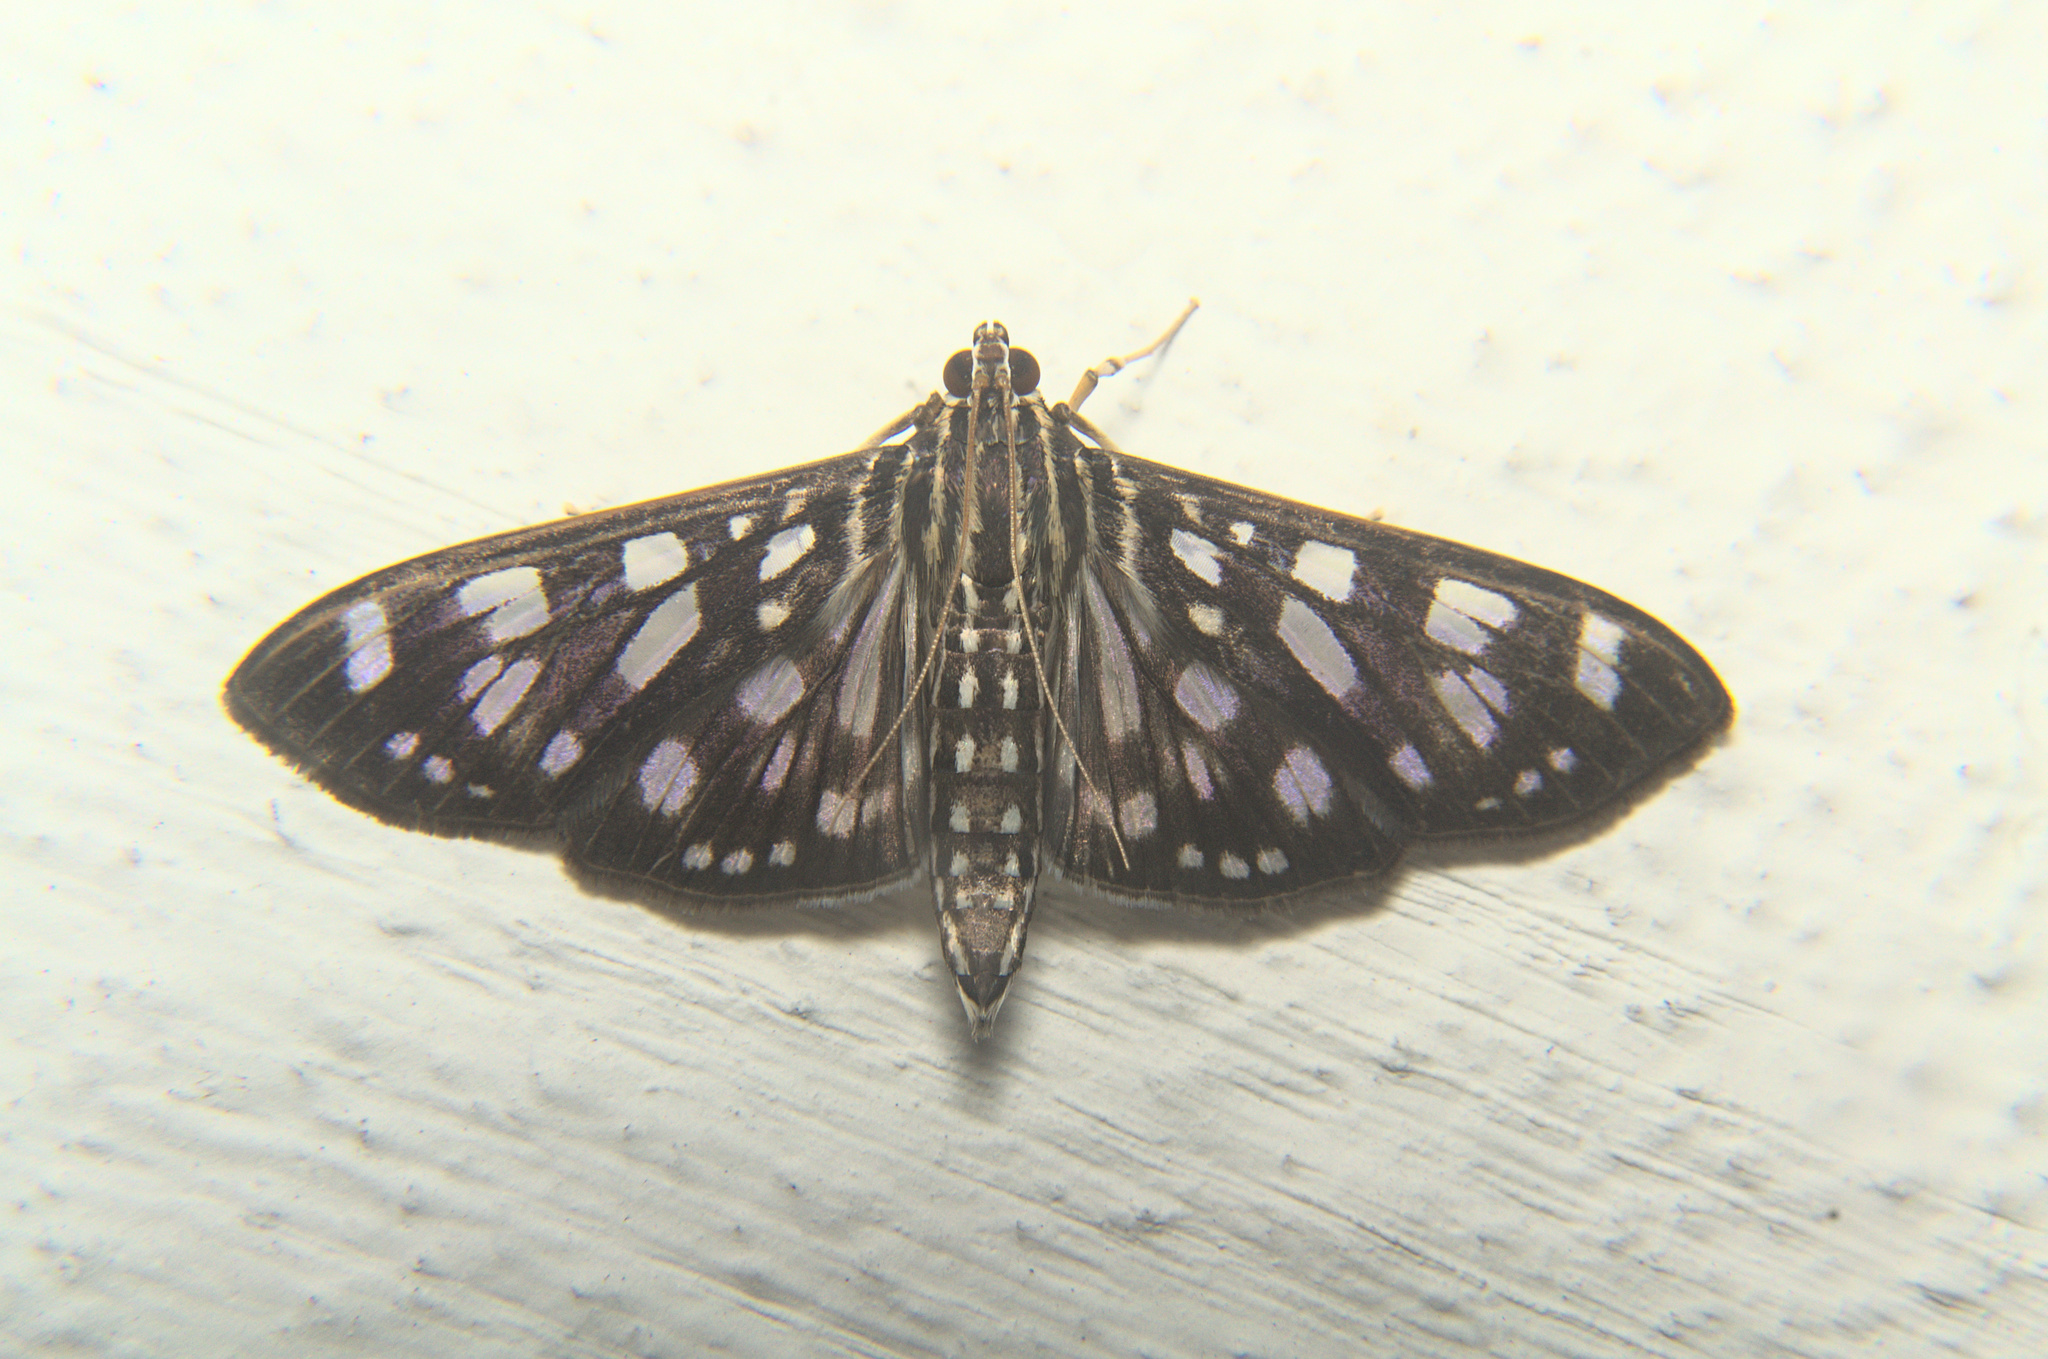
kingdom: Animalia
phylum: Arthropoda
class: Insecta
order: Lepidoptera
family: Crambidae
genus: Pygospila
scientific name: Pygospila tyres
